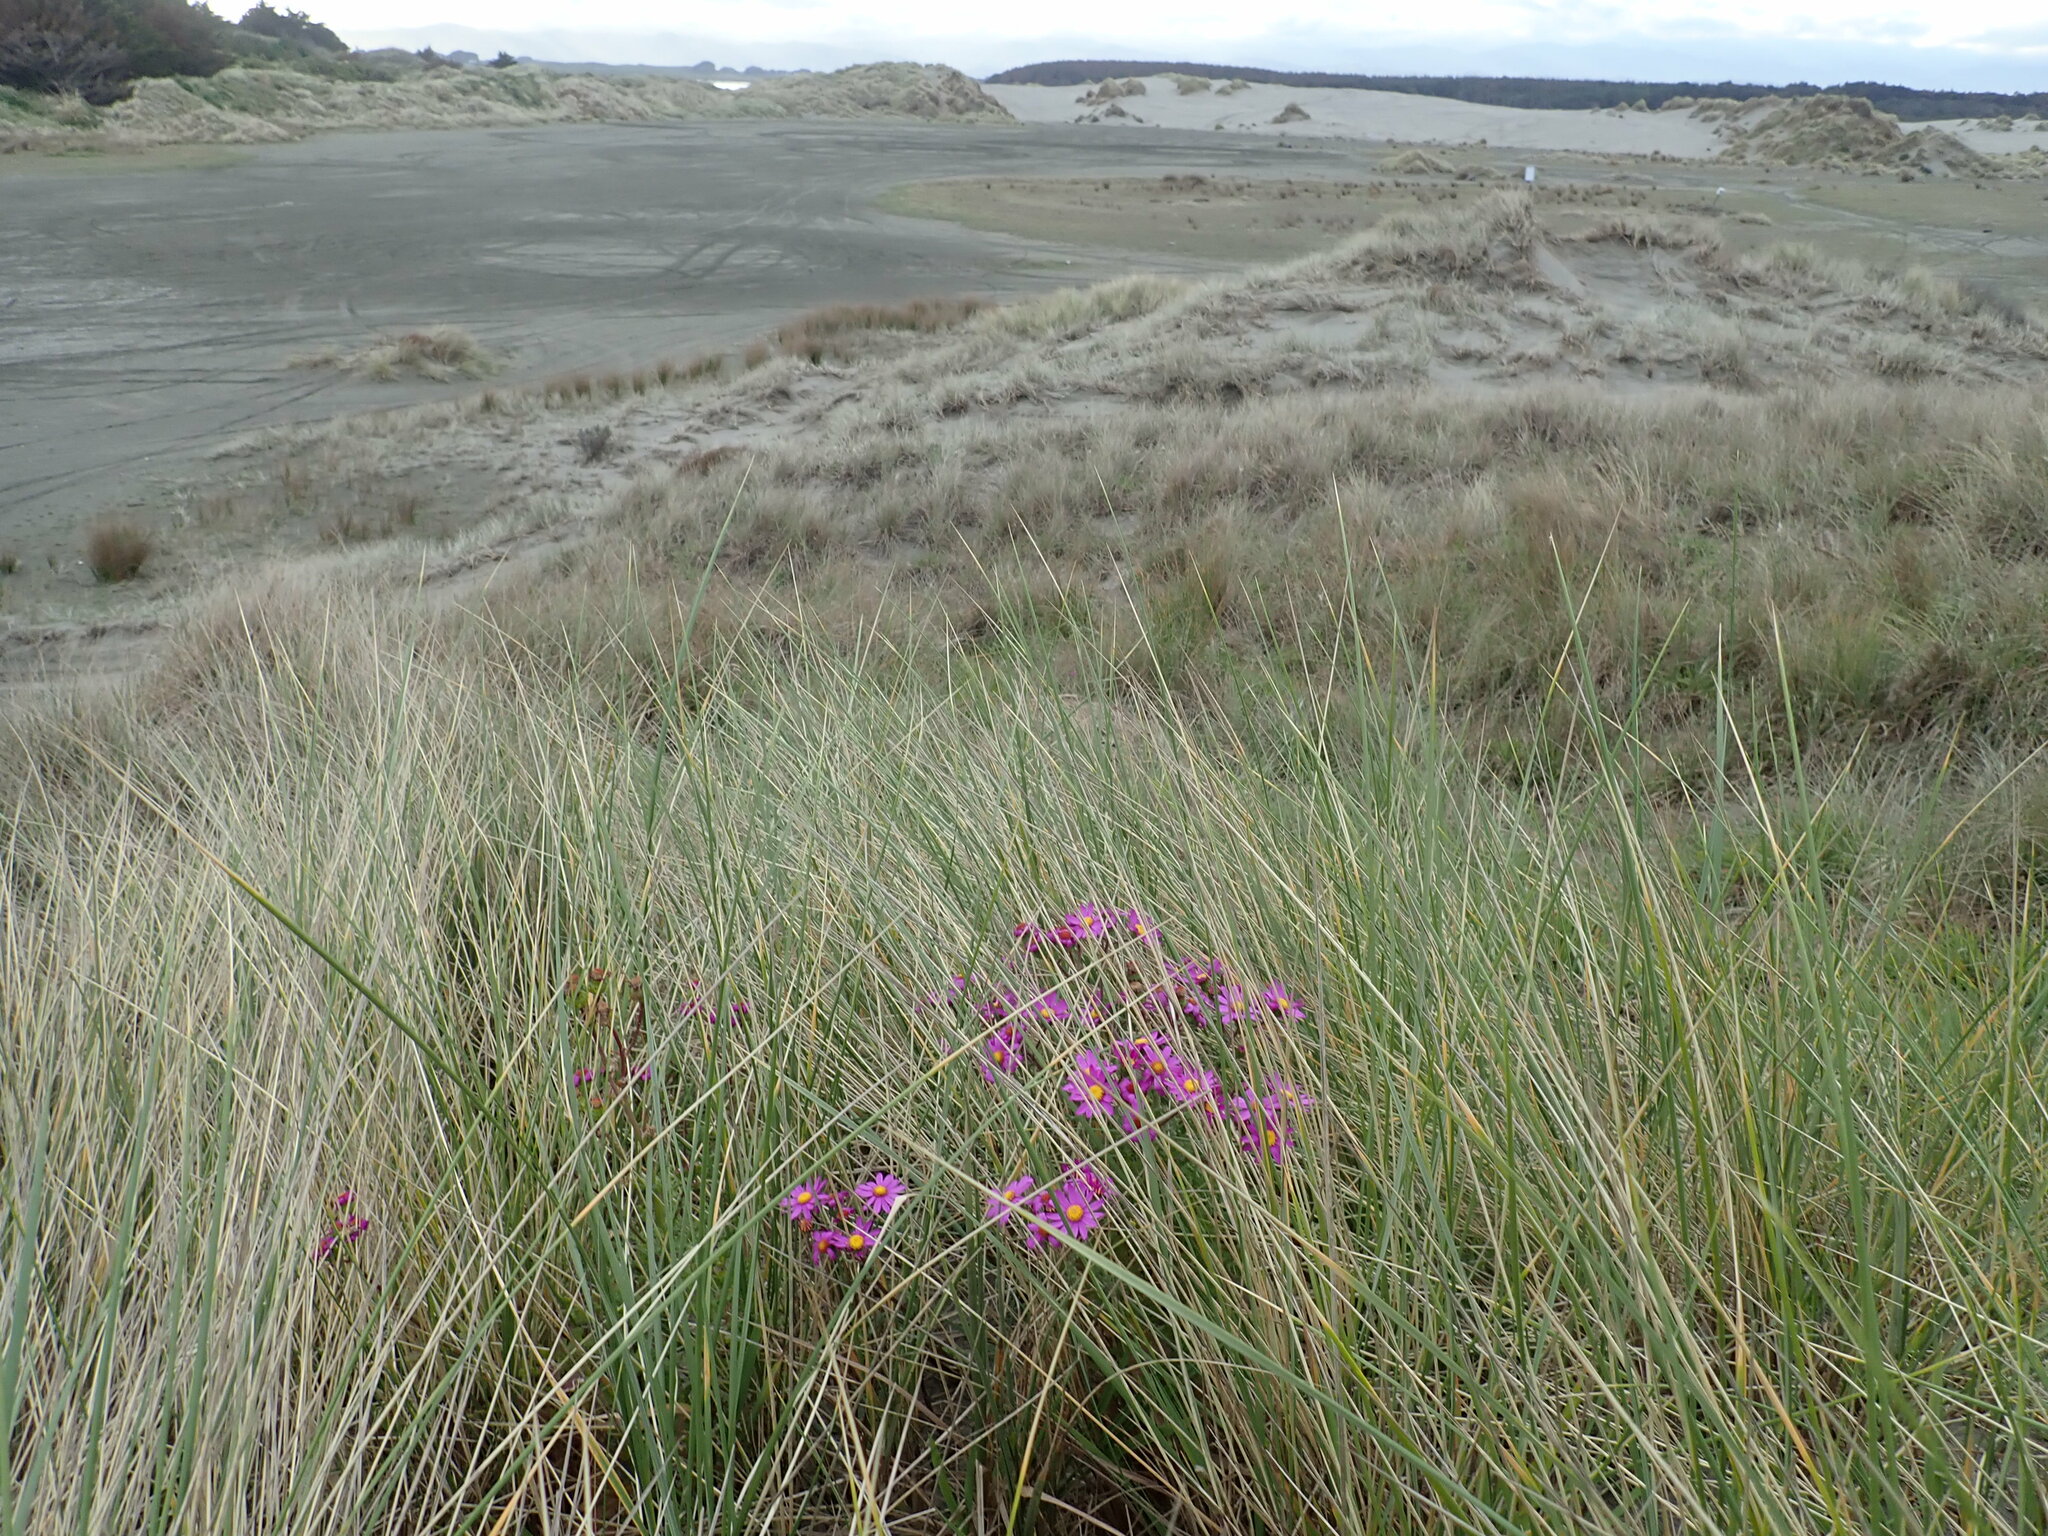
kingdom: Plantae
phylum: Tracheophyta
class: Magnoliopsida
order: Asterales
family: Asteraceae
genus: Senecio
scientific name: Senecio elegans
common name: Purple groundsel
